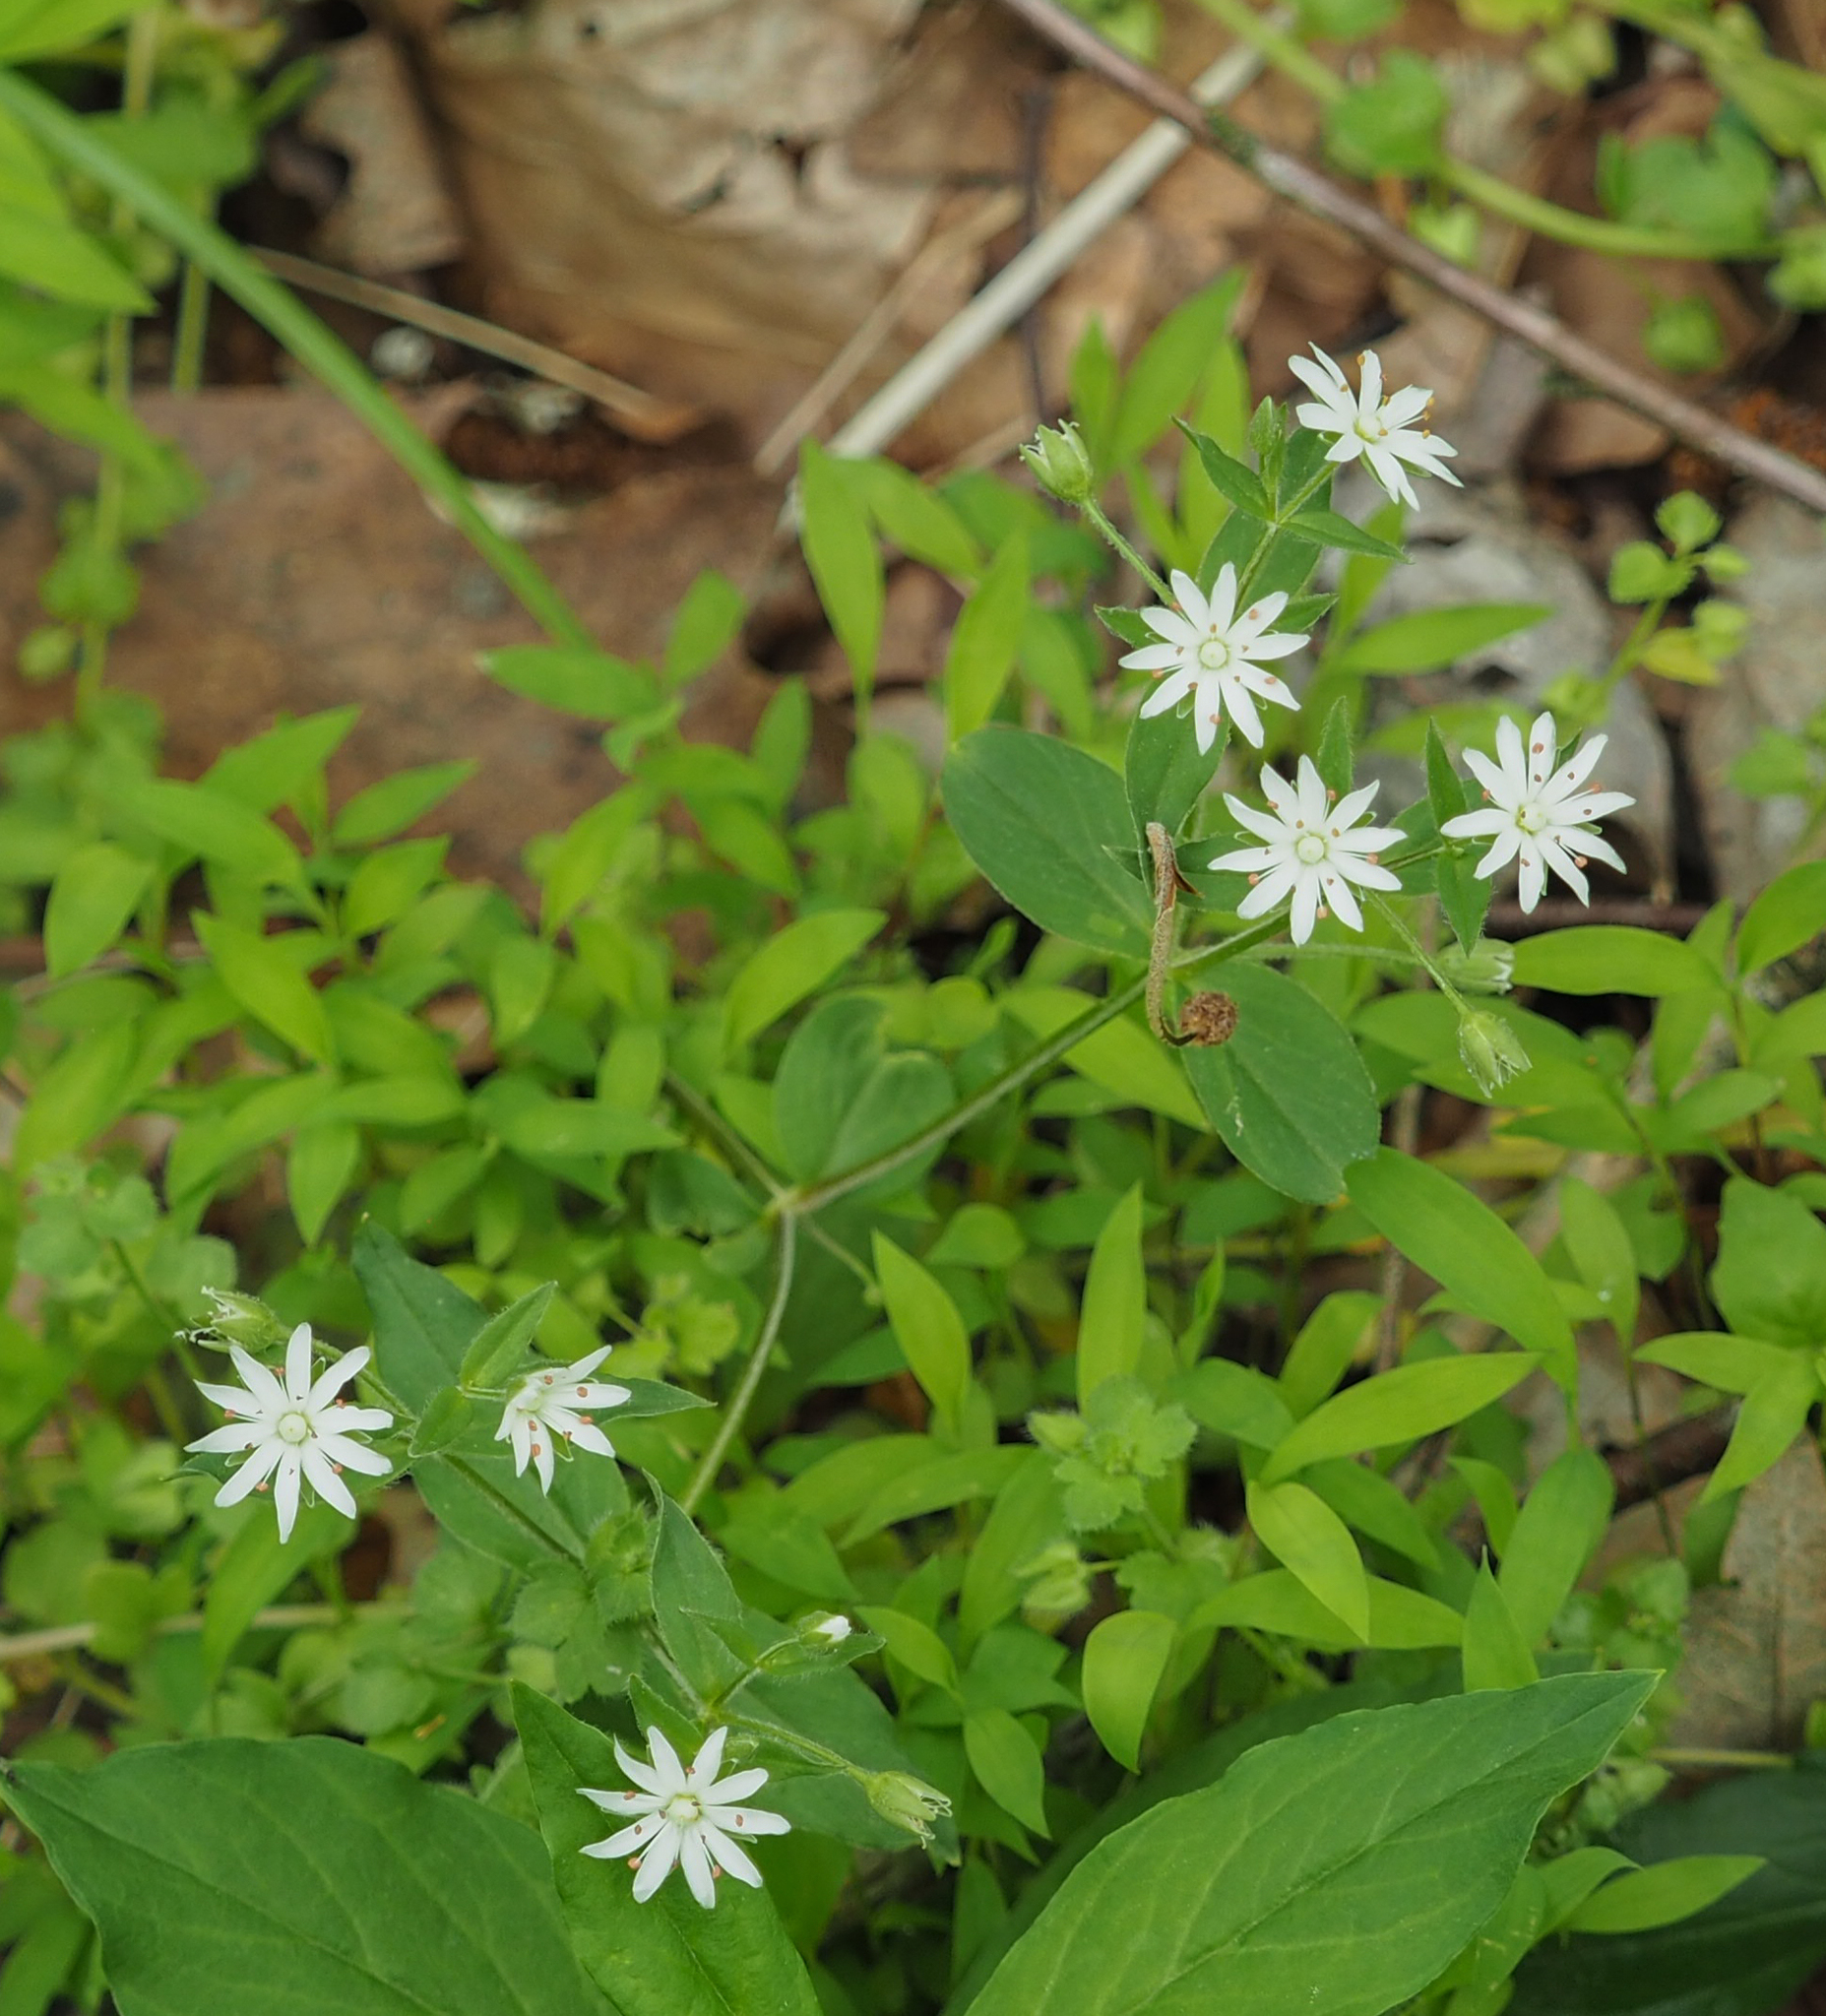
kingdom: Plantae
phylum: Tracheophyta
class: Magnoliopsida
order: Caryophyllales
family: Caryophyllaceae
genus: Stellaria
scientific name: Stellaria pubera
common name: Star chickweed
